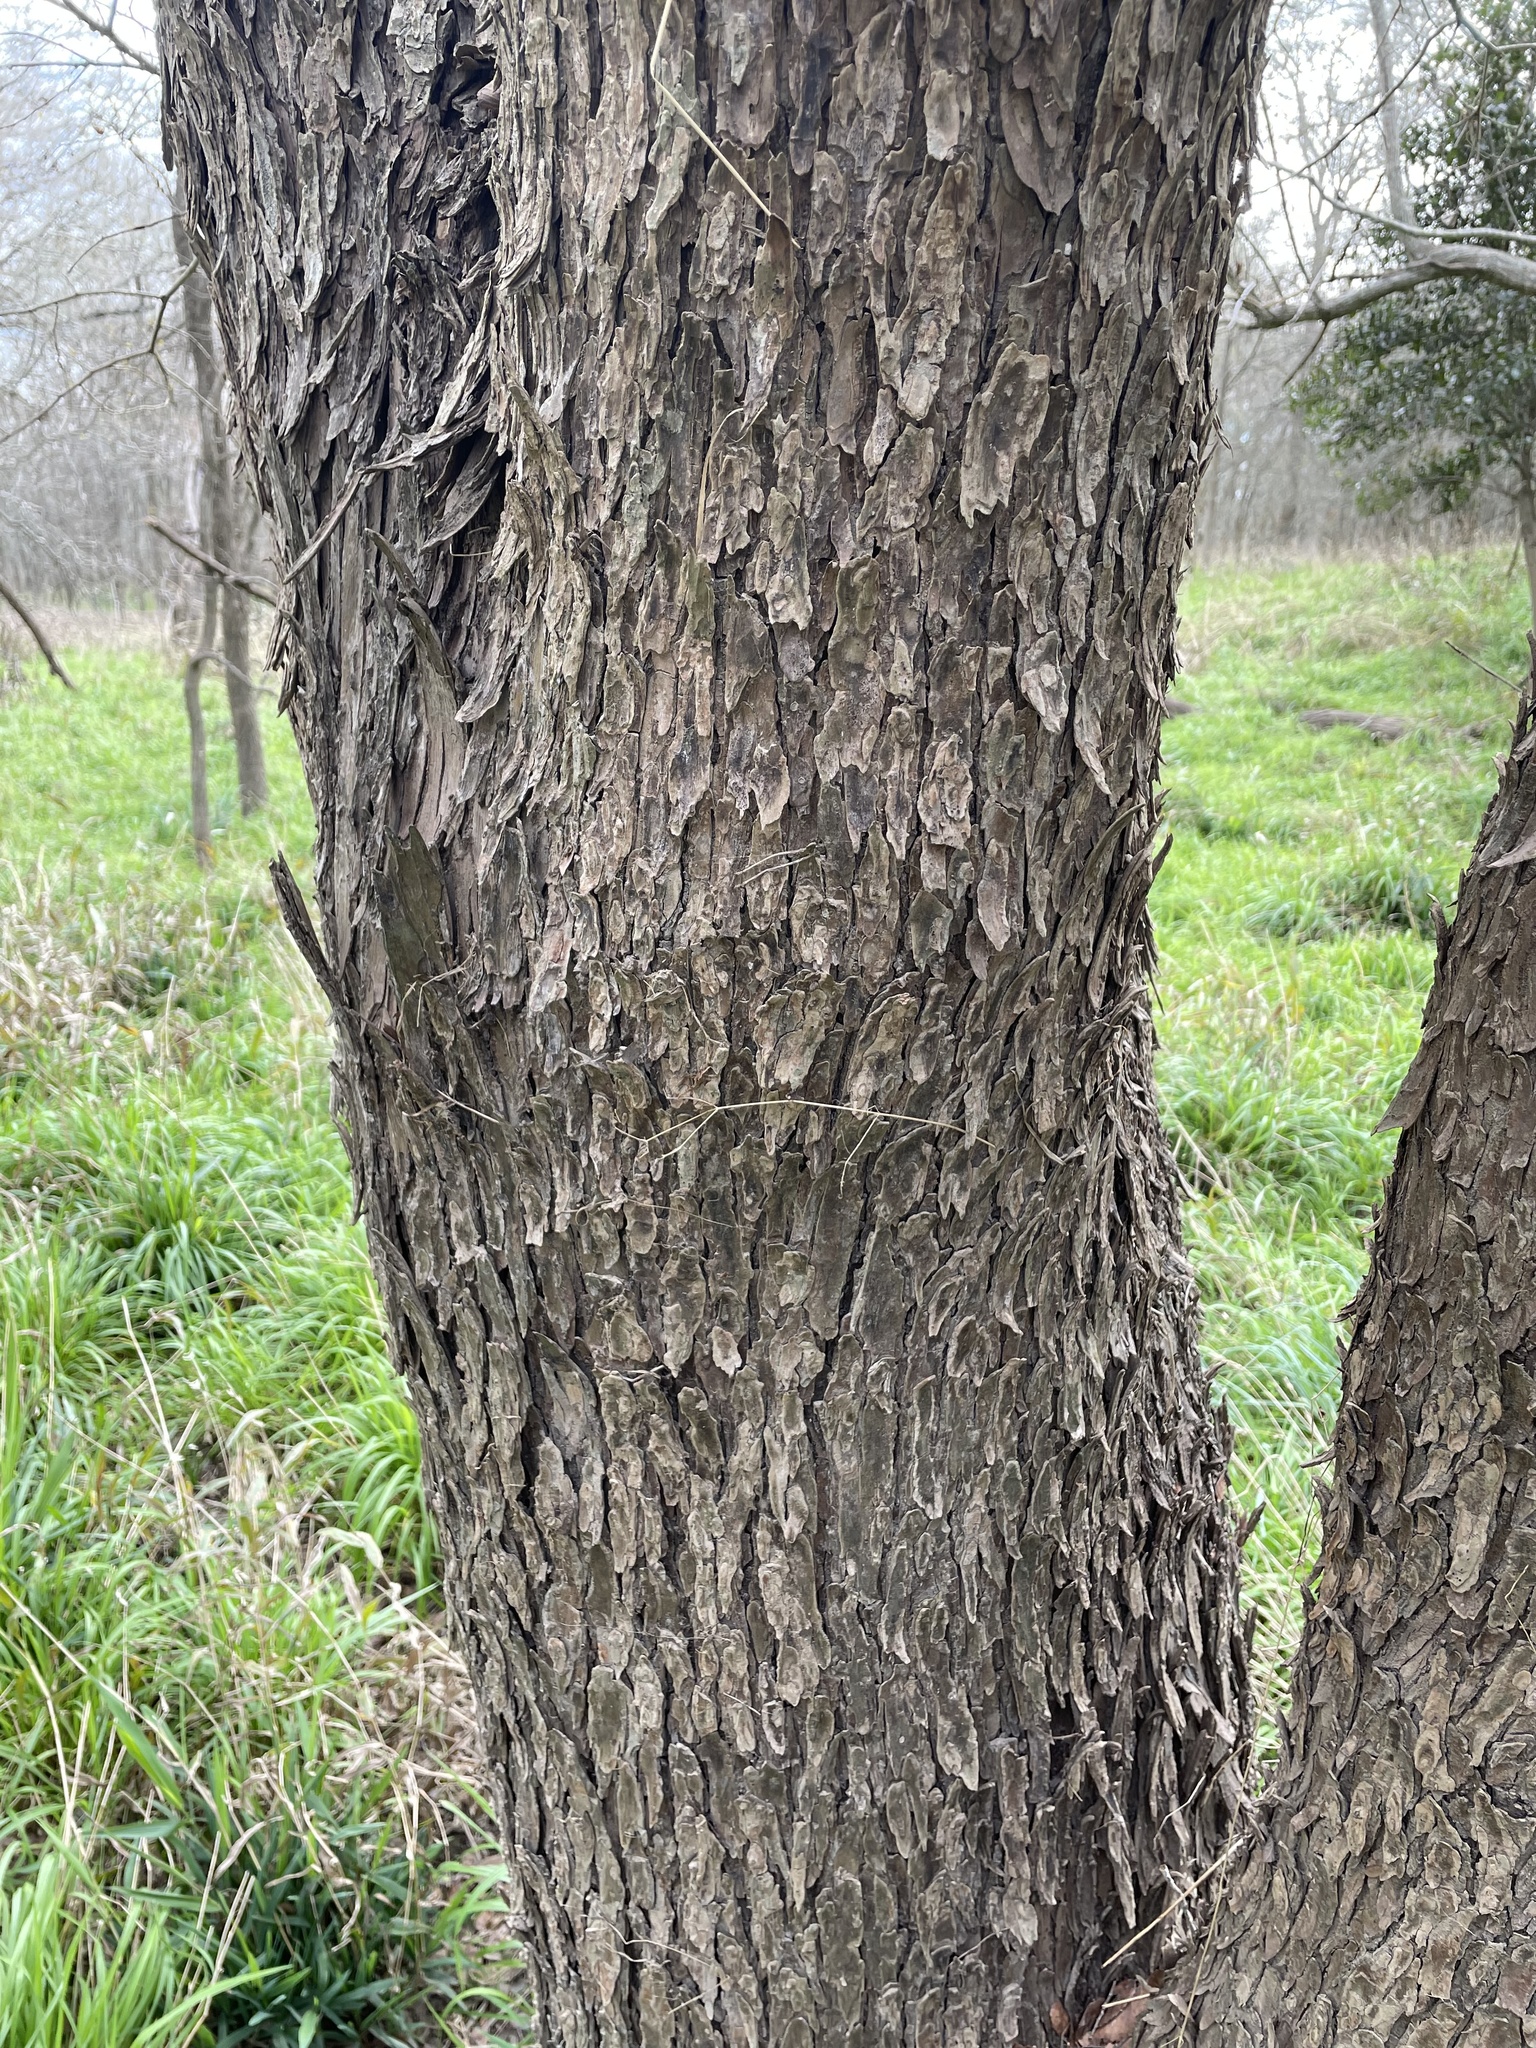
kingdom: Plantae
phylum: Tracheophyta
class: Magnoliopsida
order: Rosales
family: Ulmaceae
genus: Ulmus
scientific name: Ulmus crassifolia
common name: Basket elm
